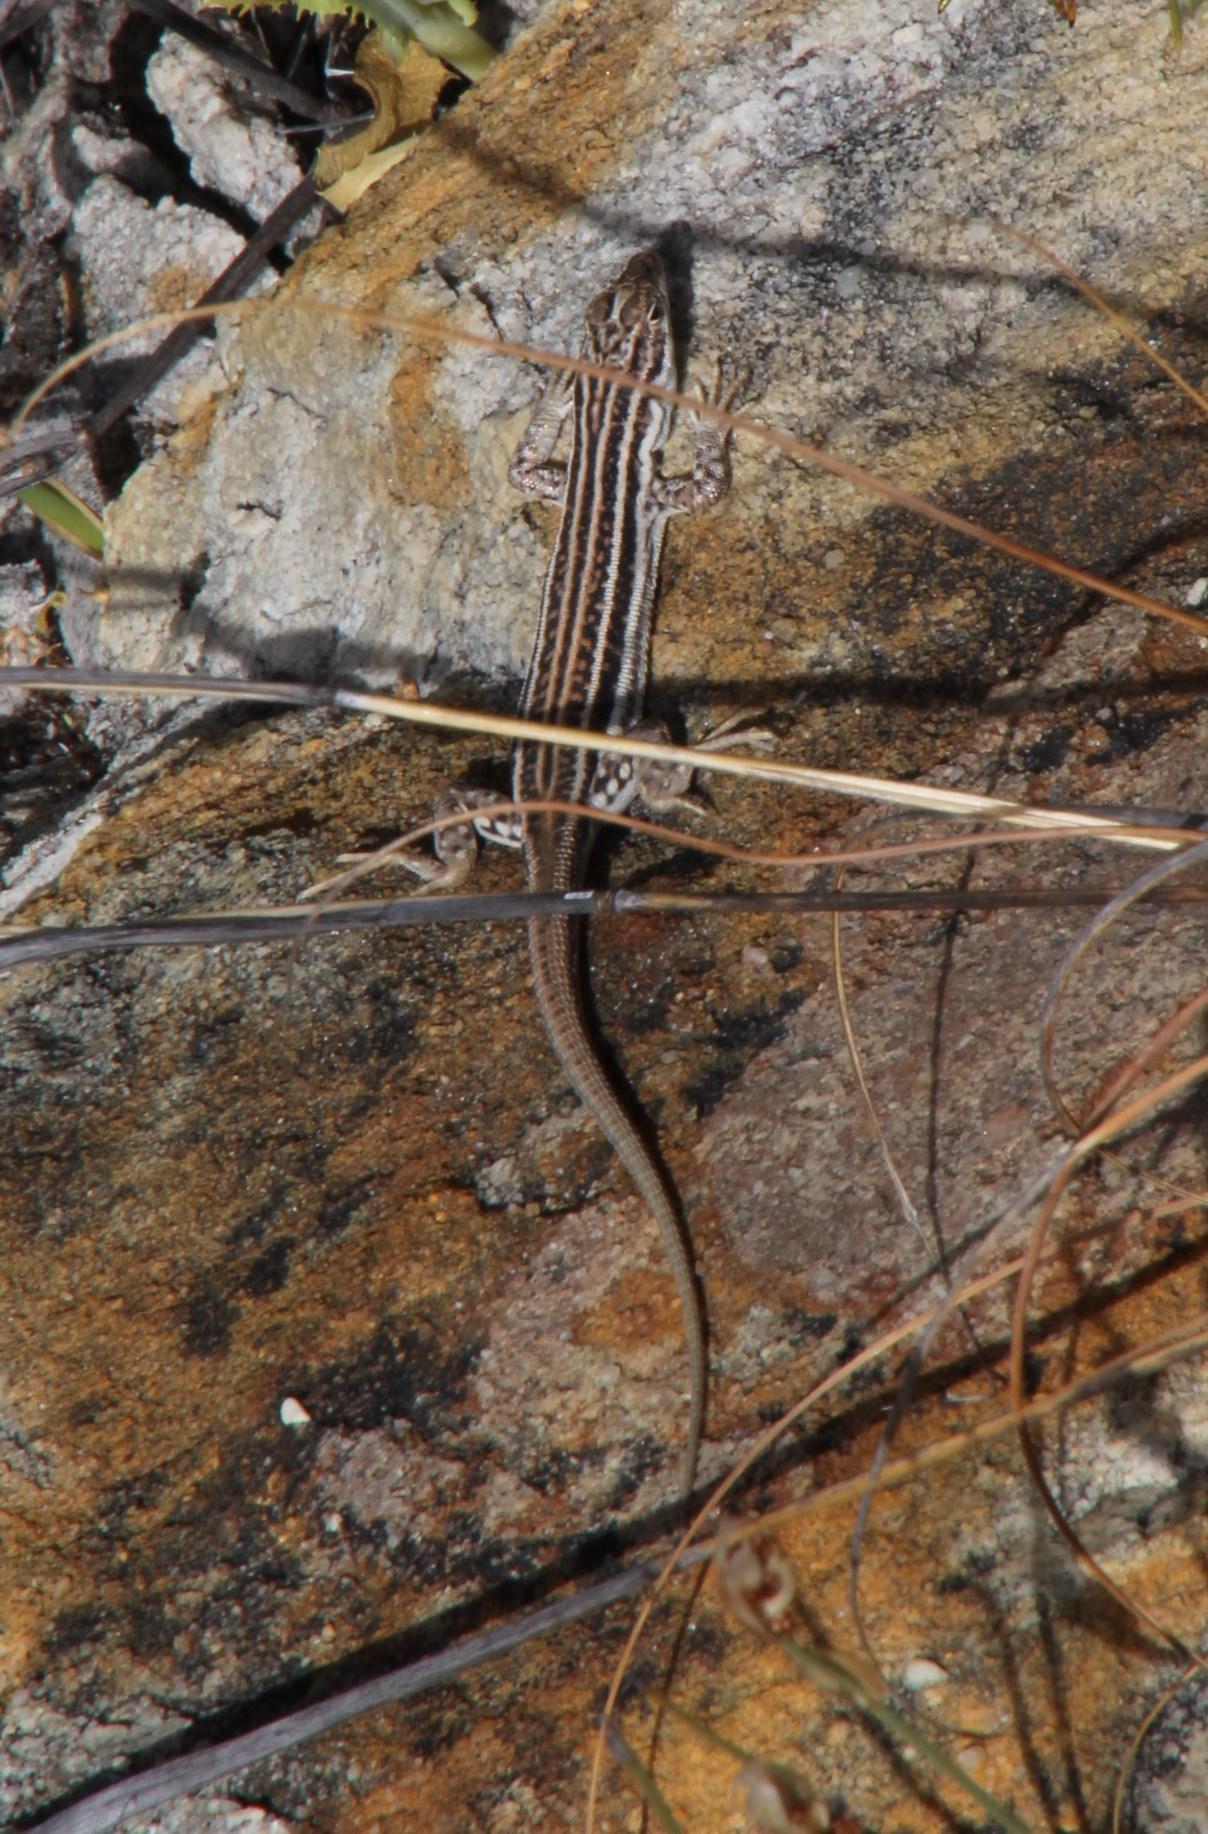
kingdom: Animalia
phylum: Chordata
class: Squamata
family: Lacertidae
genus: Pedioplanis
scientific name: Pedioplanis burchelli
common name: Burchell's sand lizard
